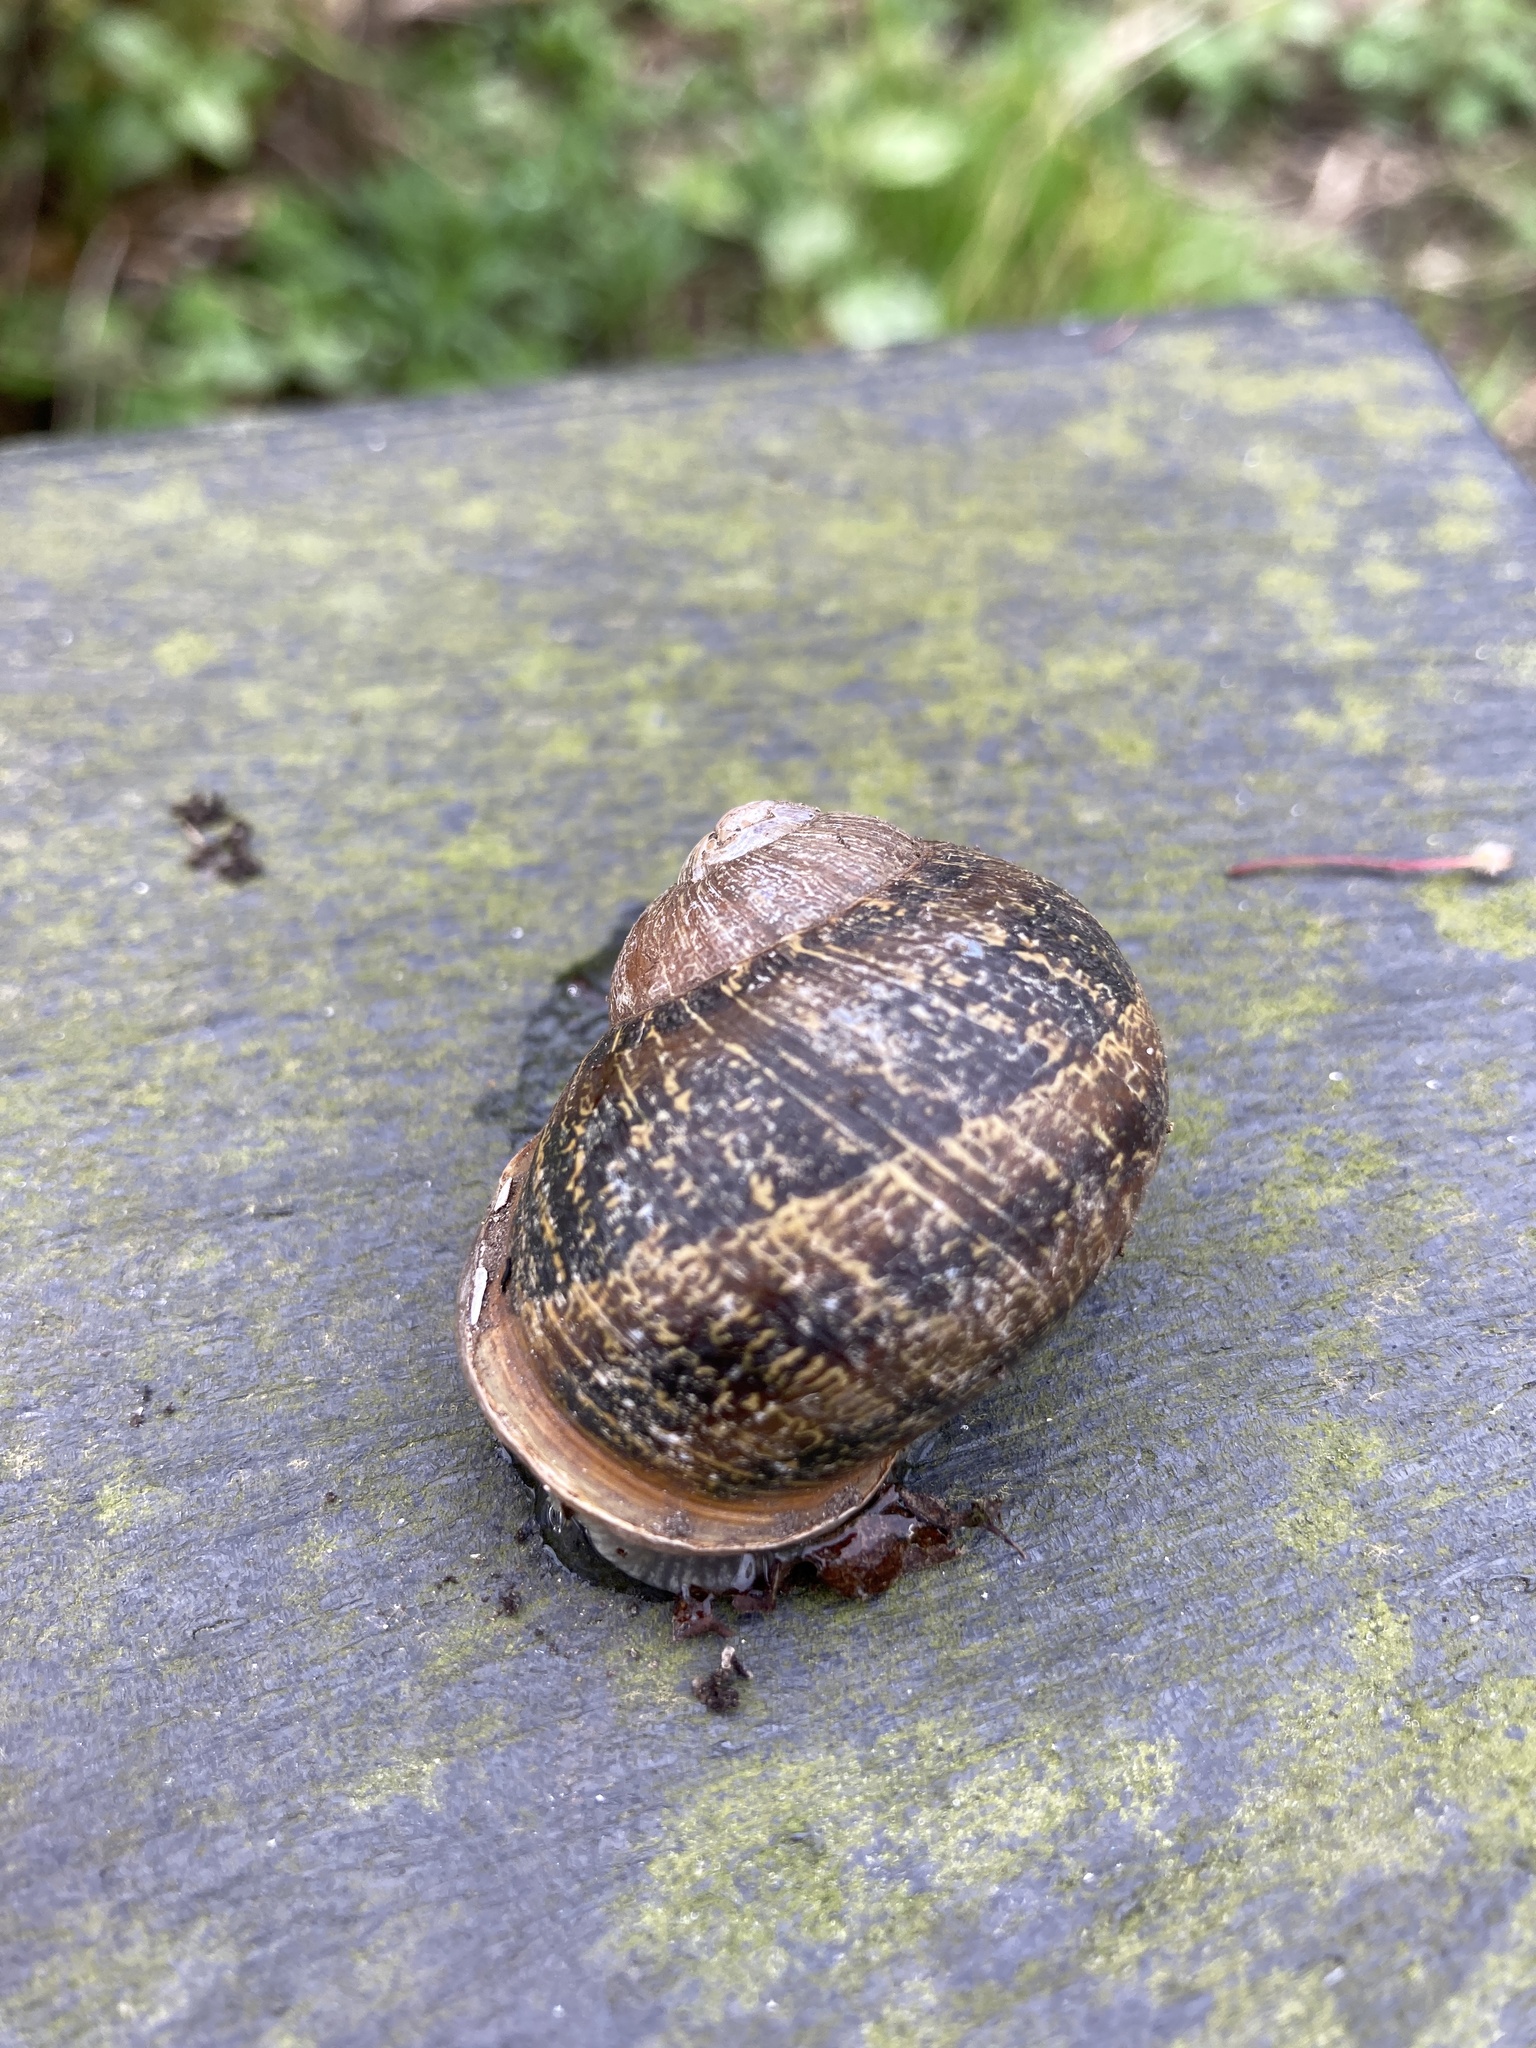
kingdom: Animalia
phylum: Mollusca
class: Gastropoda
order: Stylommatophora
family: Helicidae
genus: Cornu
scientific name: Cornu aspersum
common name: Brown garden snail
